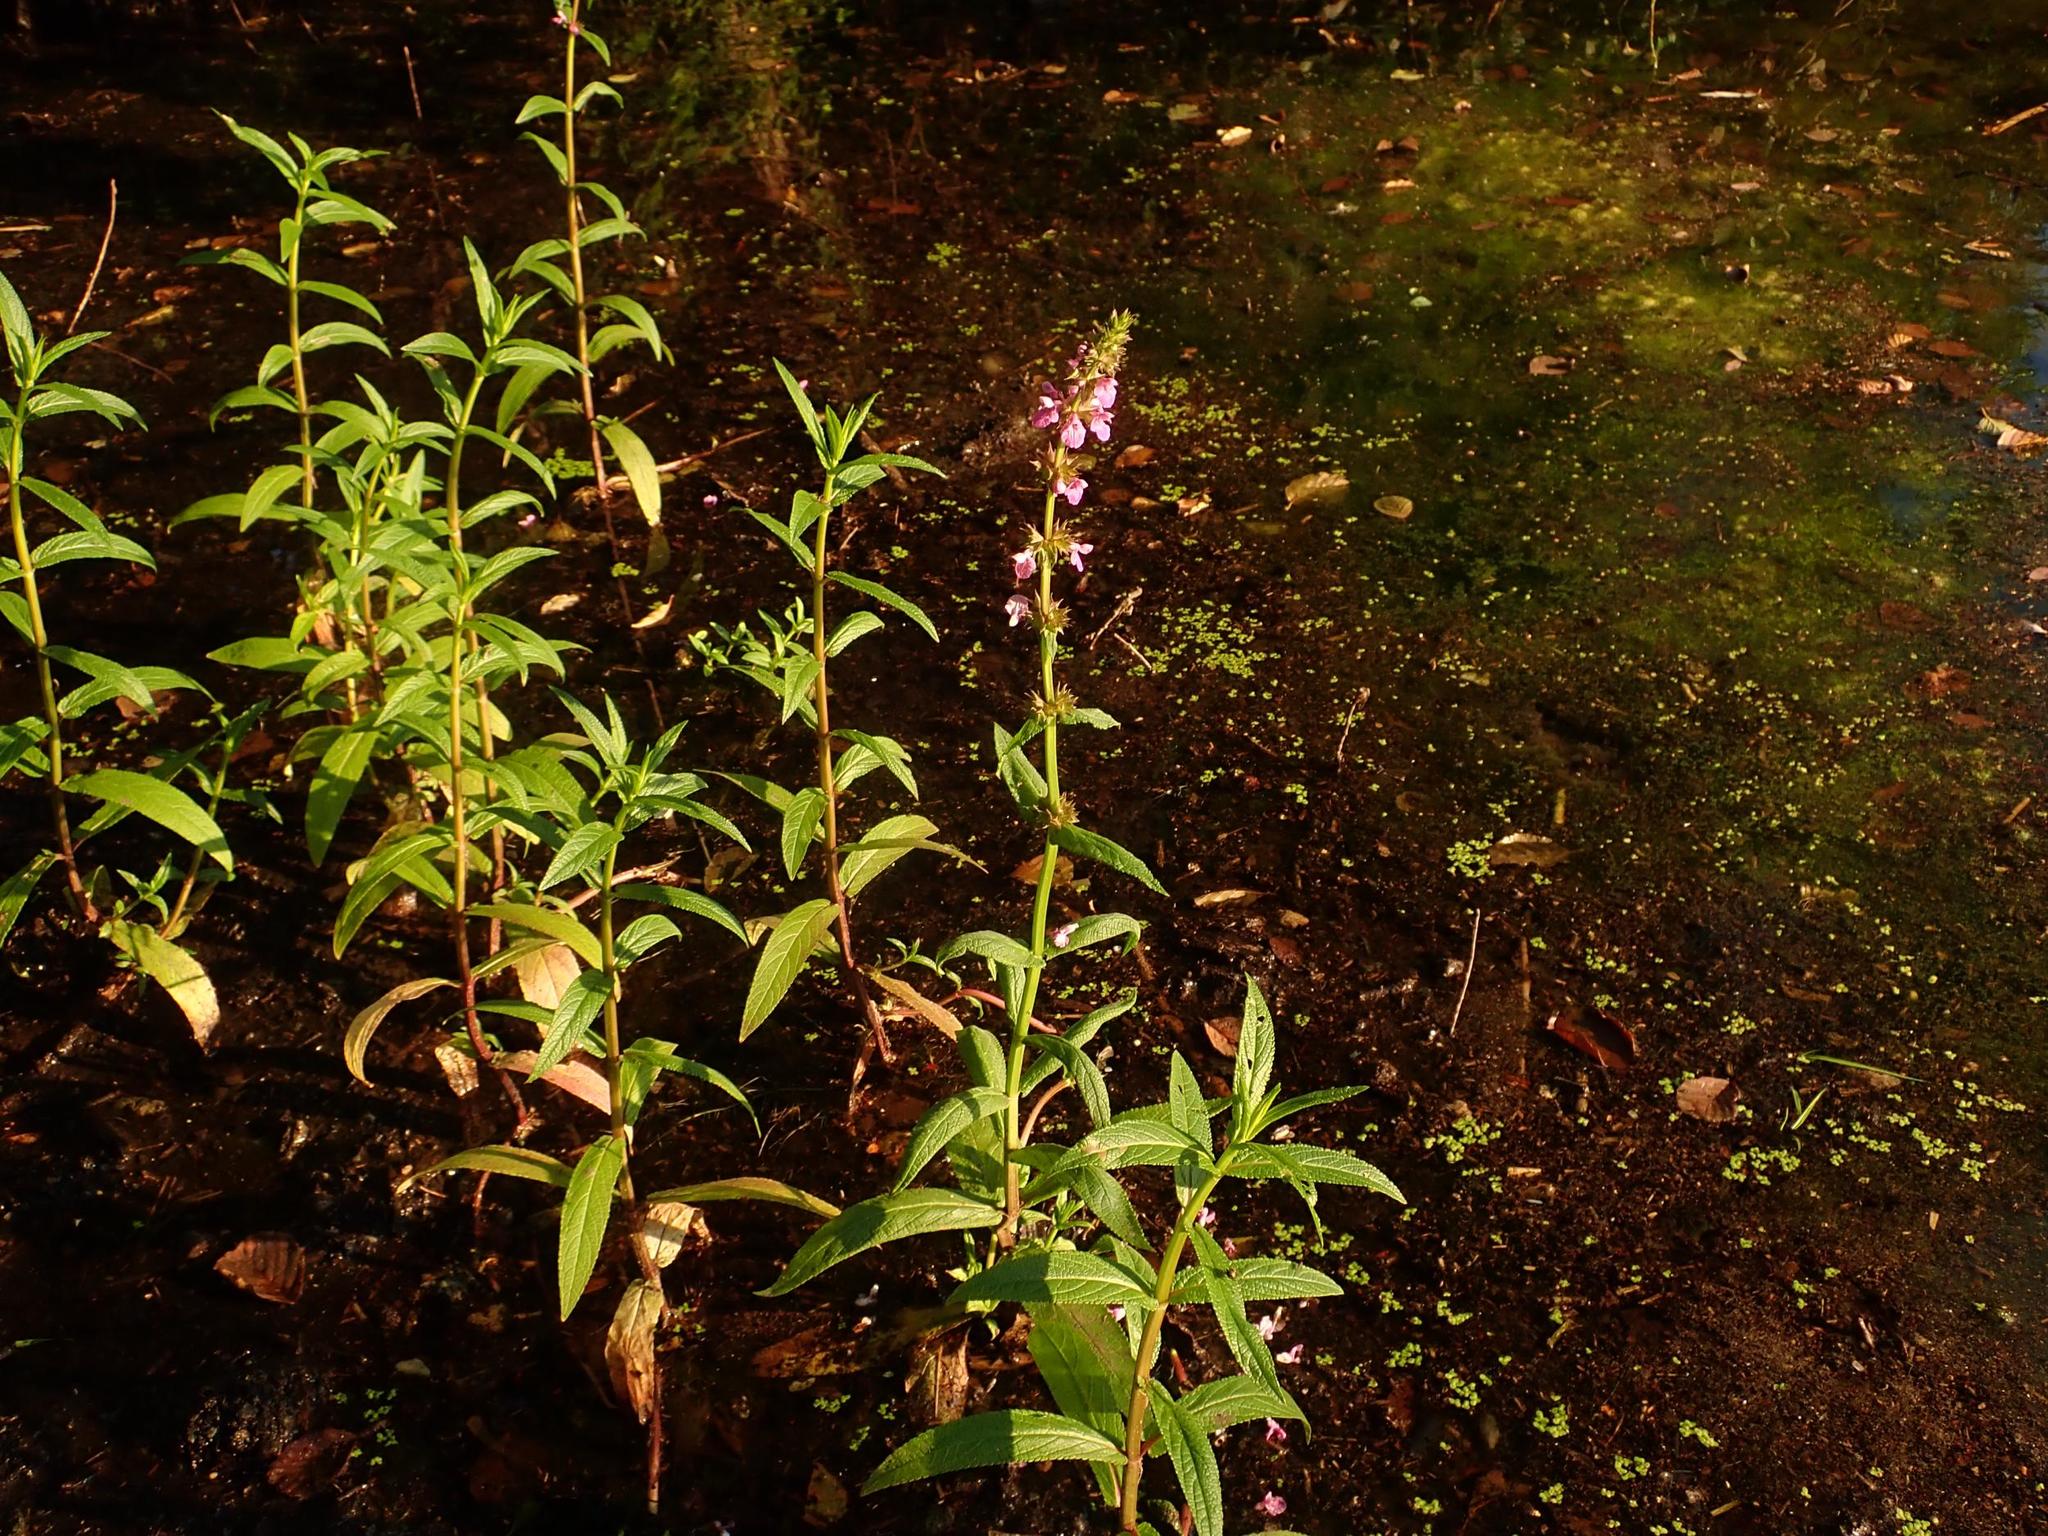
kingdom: Plantae
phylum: Tracheophyta
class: Magnoliopsida
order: Lamiales
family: Lamiaceae
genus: Stachys
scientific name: Stachys palustris
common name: Marsh woundwort
